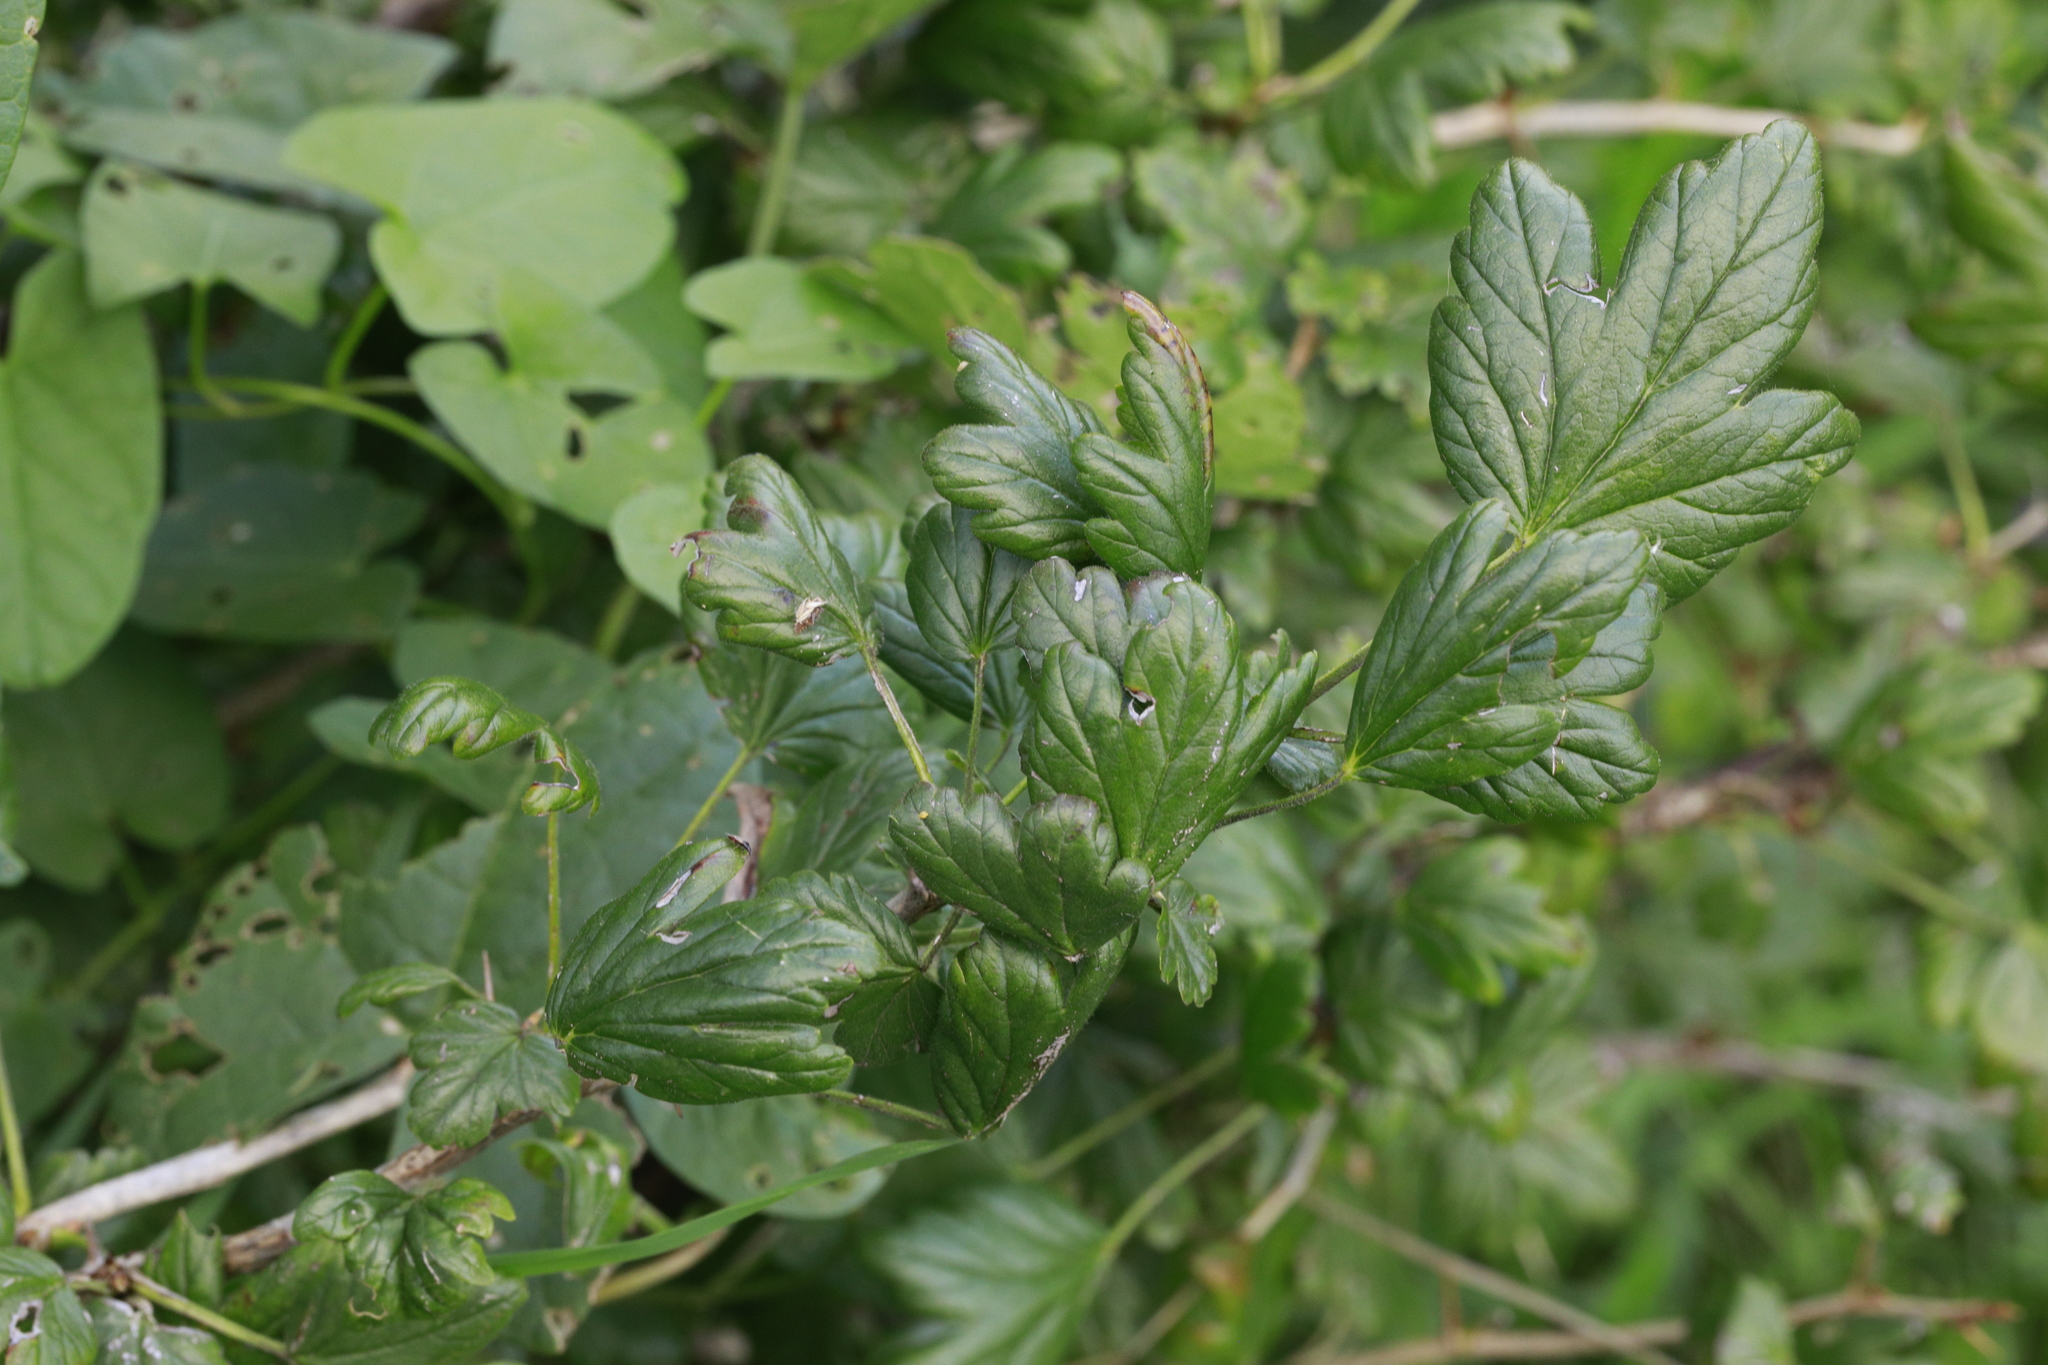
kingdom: Plantae
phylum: Tracheophyta
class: Magnoliopsida
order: Saxifragales
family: Grossulariaceae
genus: Ribes
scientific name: Ribes uva-crispa
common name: Gooseberry
